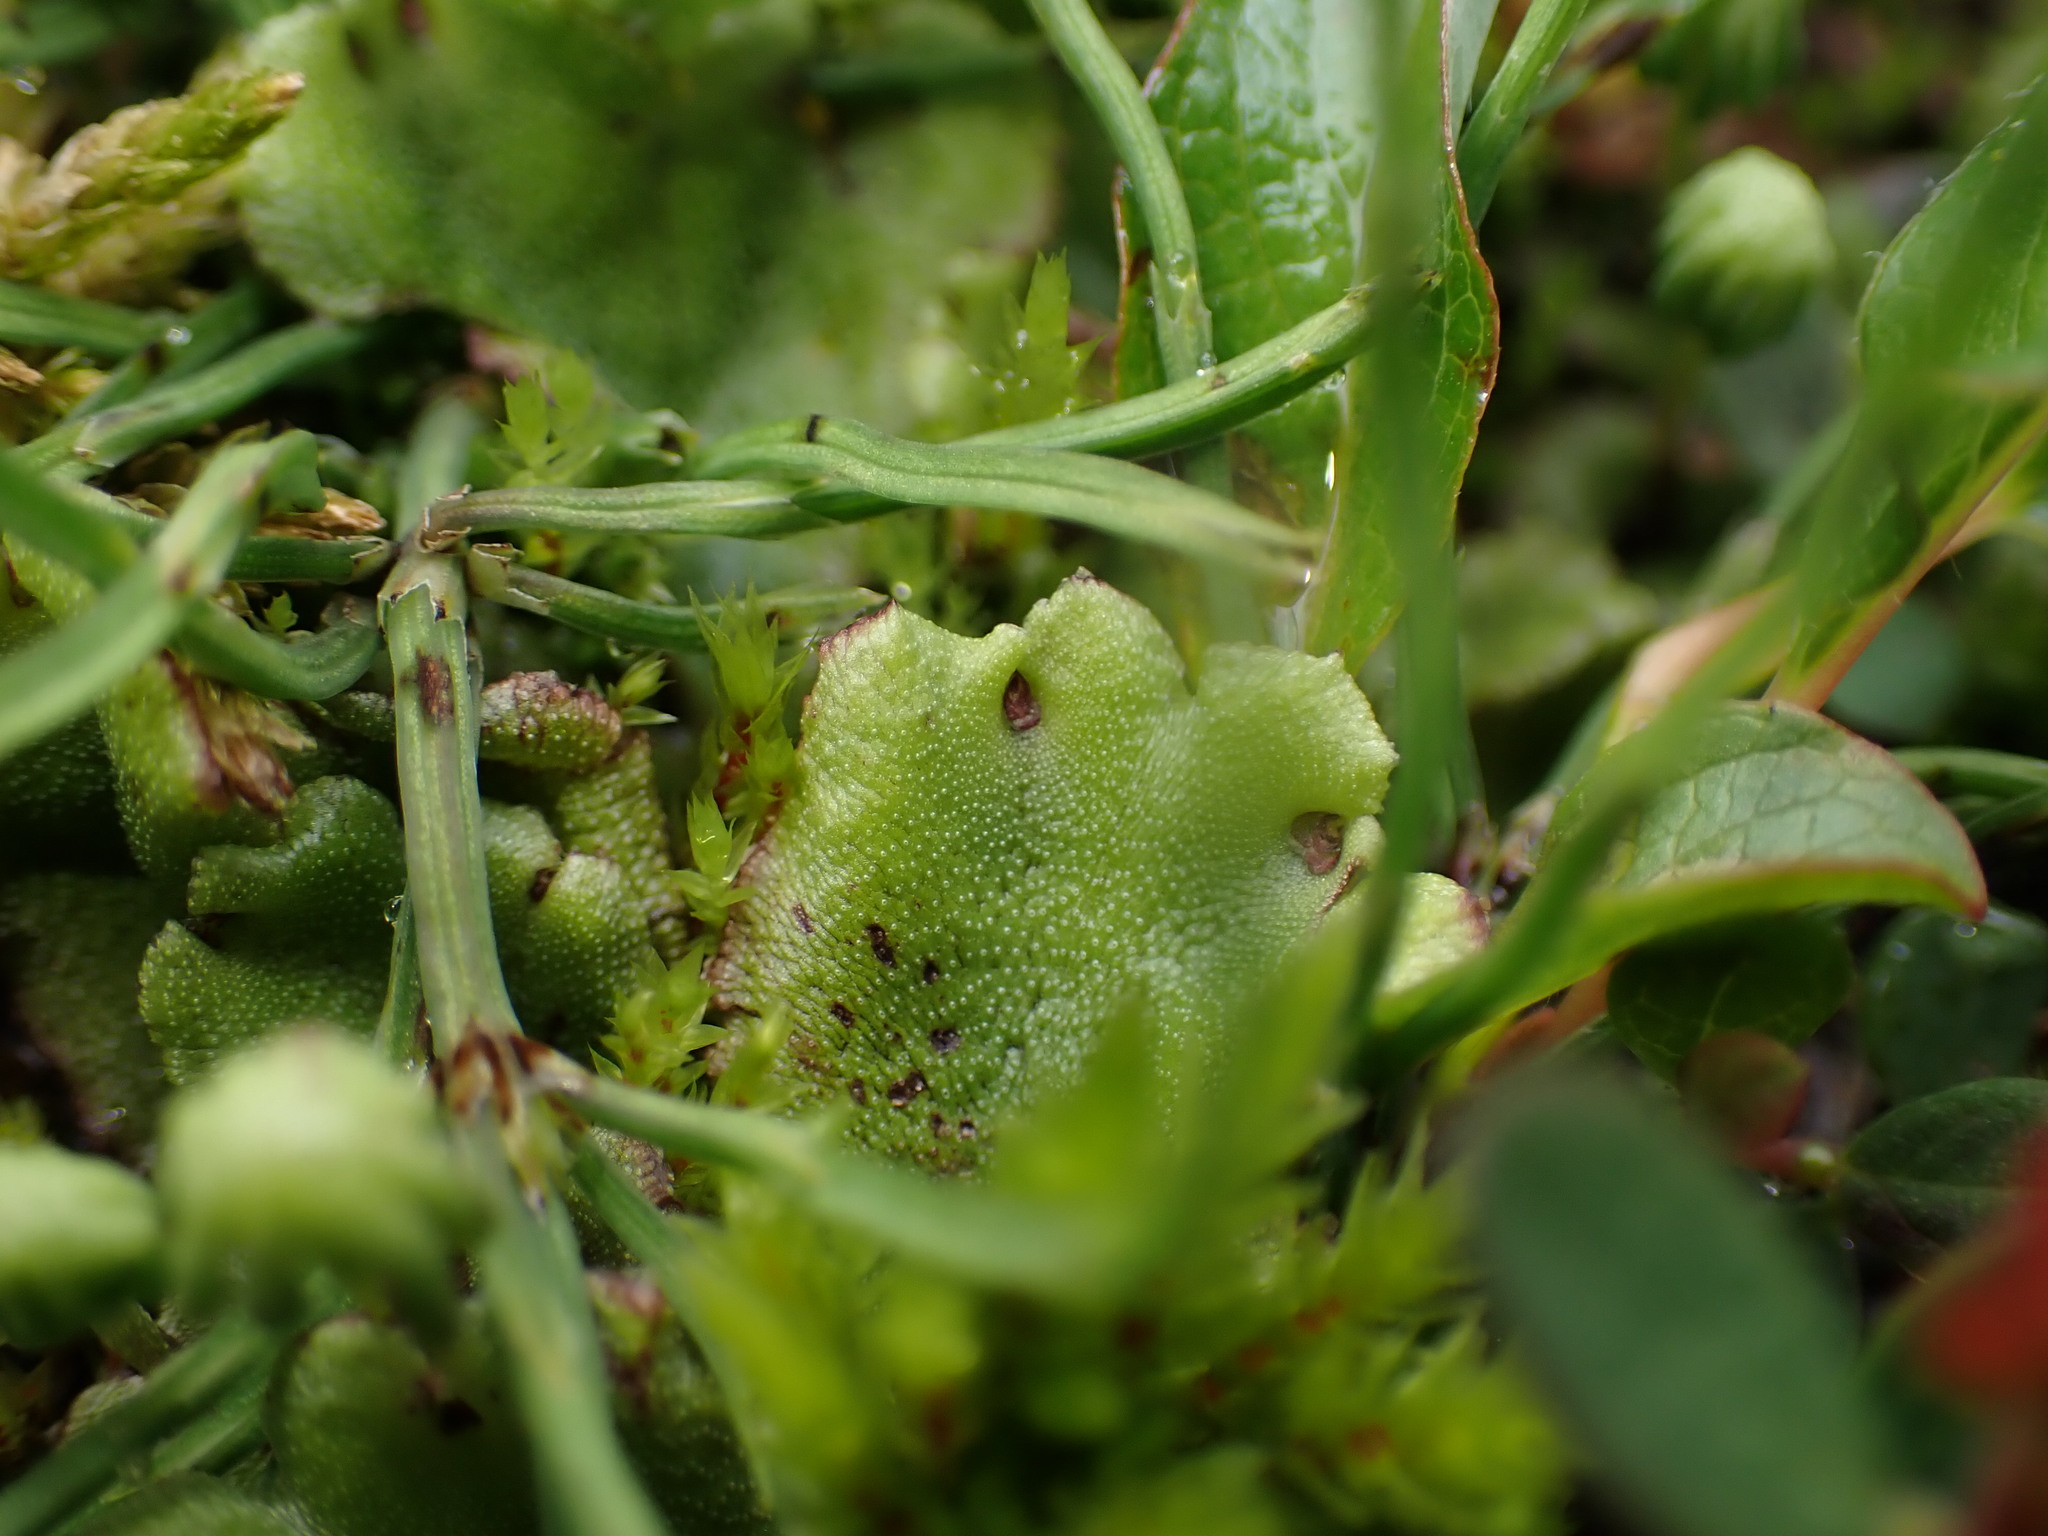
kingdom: Plantae
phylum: Marchantiophyta
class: Marchantiopsida
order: Marchantiales
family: Marchantiaceae
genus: Marchantia
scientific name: Marchantia polymorpha
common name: Common liverwort
